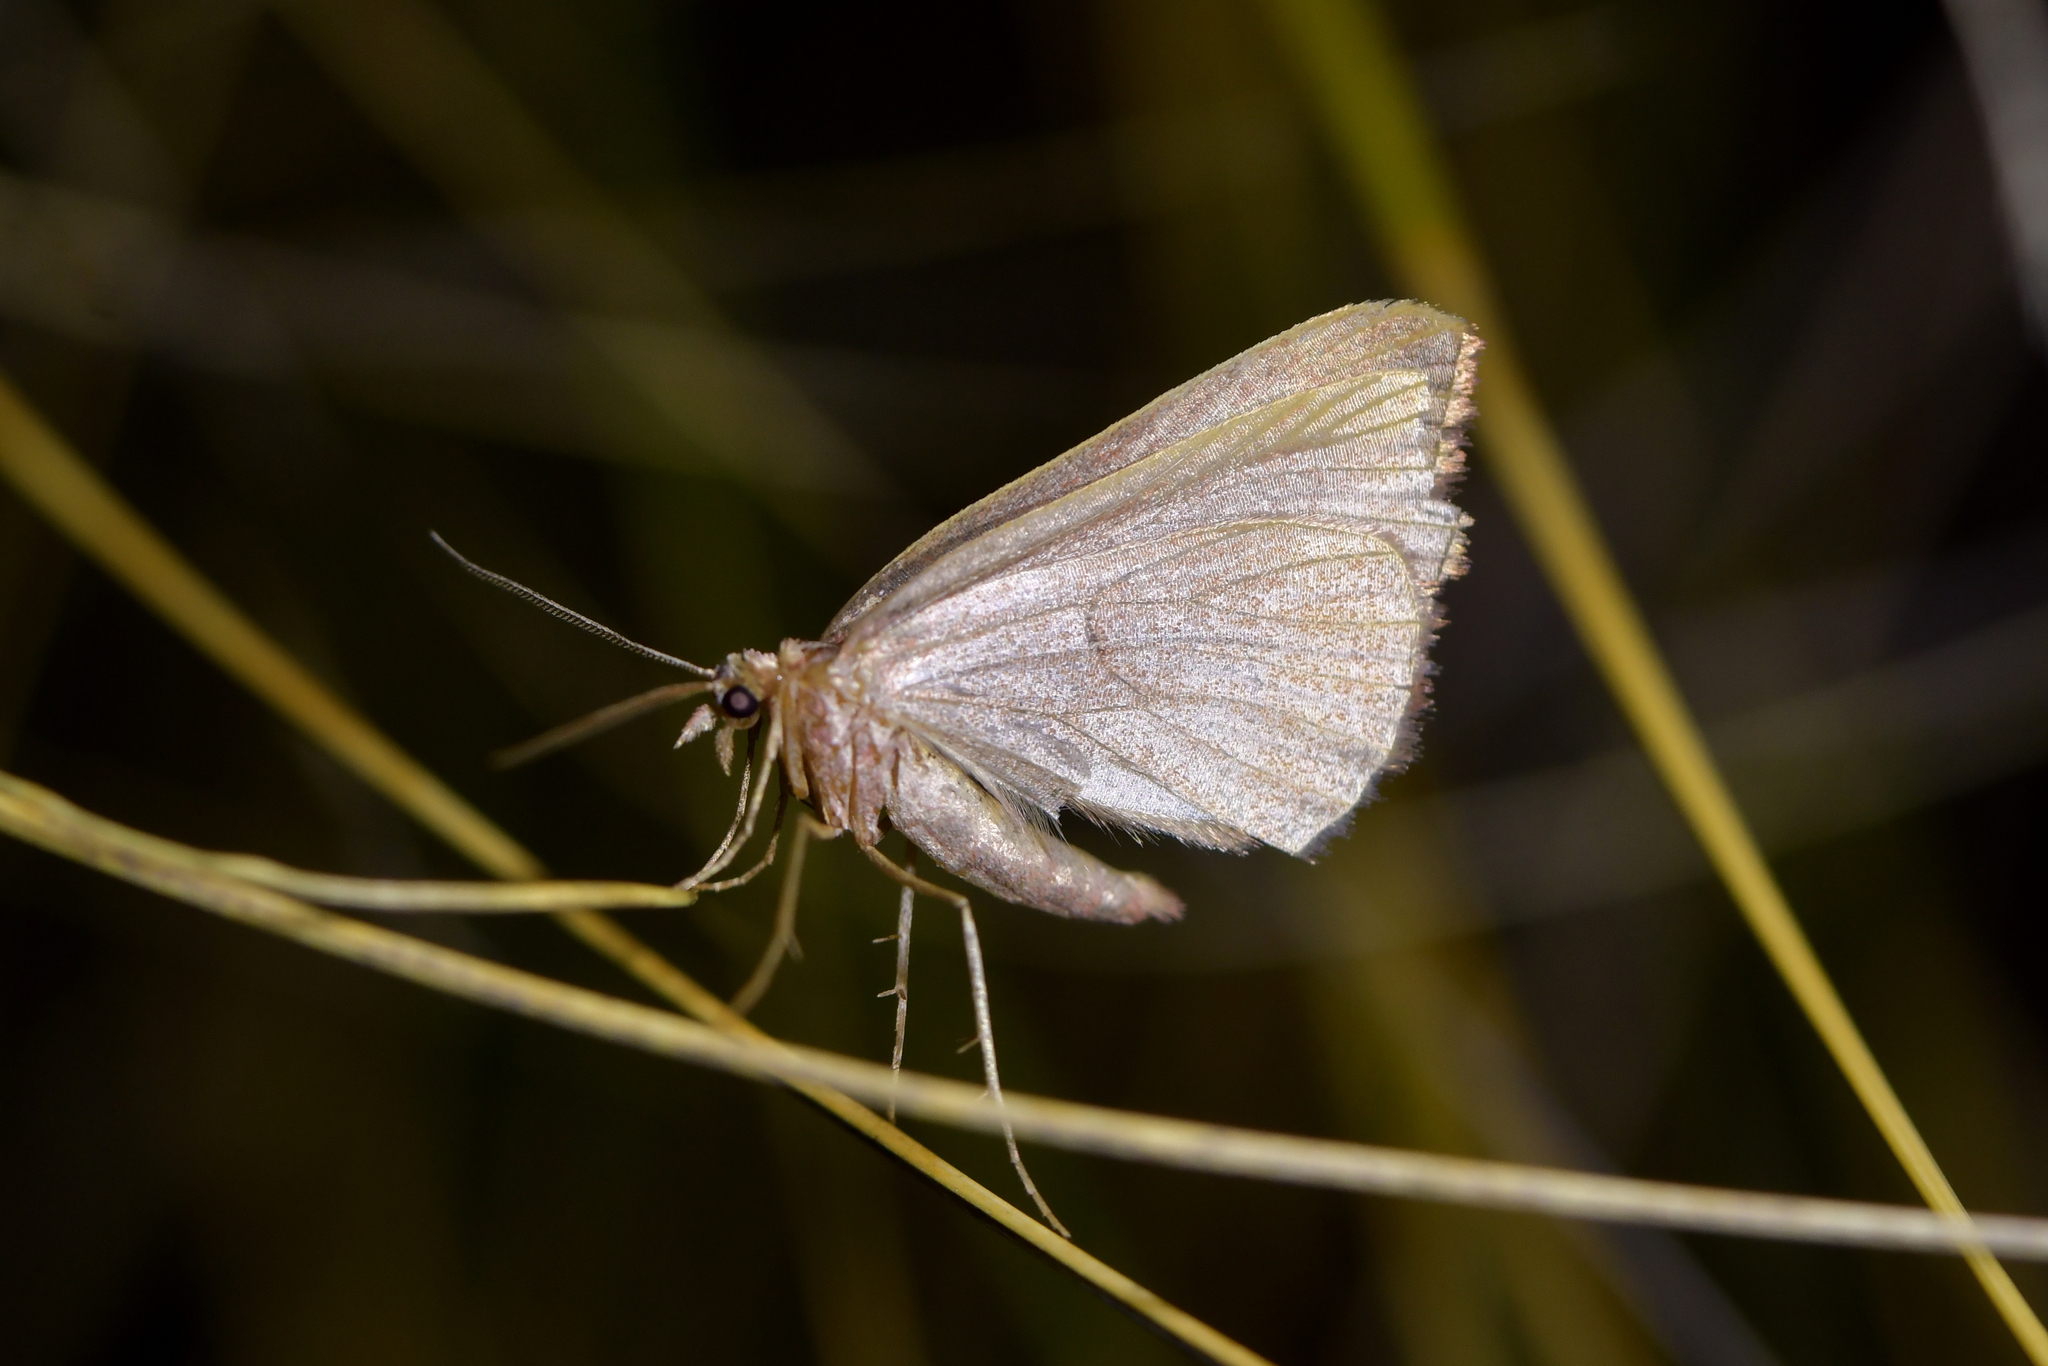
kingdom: Animalia
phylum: Arthropoda
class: Insecta
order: Lepidoptera
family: Geometridae
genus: Xanthorhoe
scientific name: Xanthorhoe occulta
